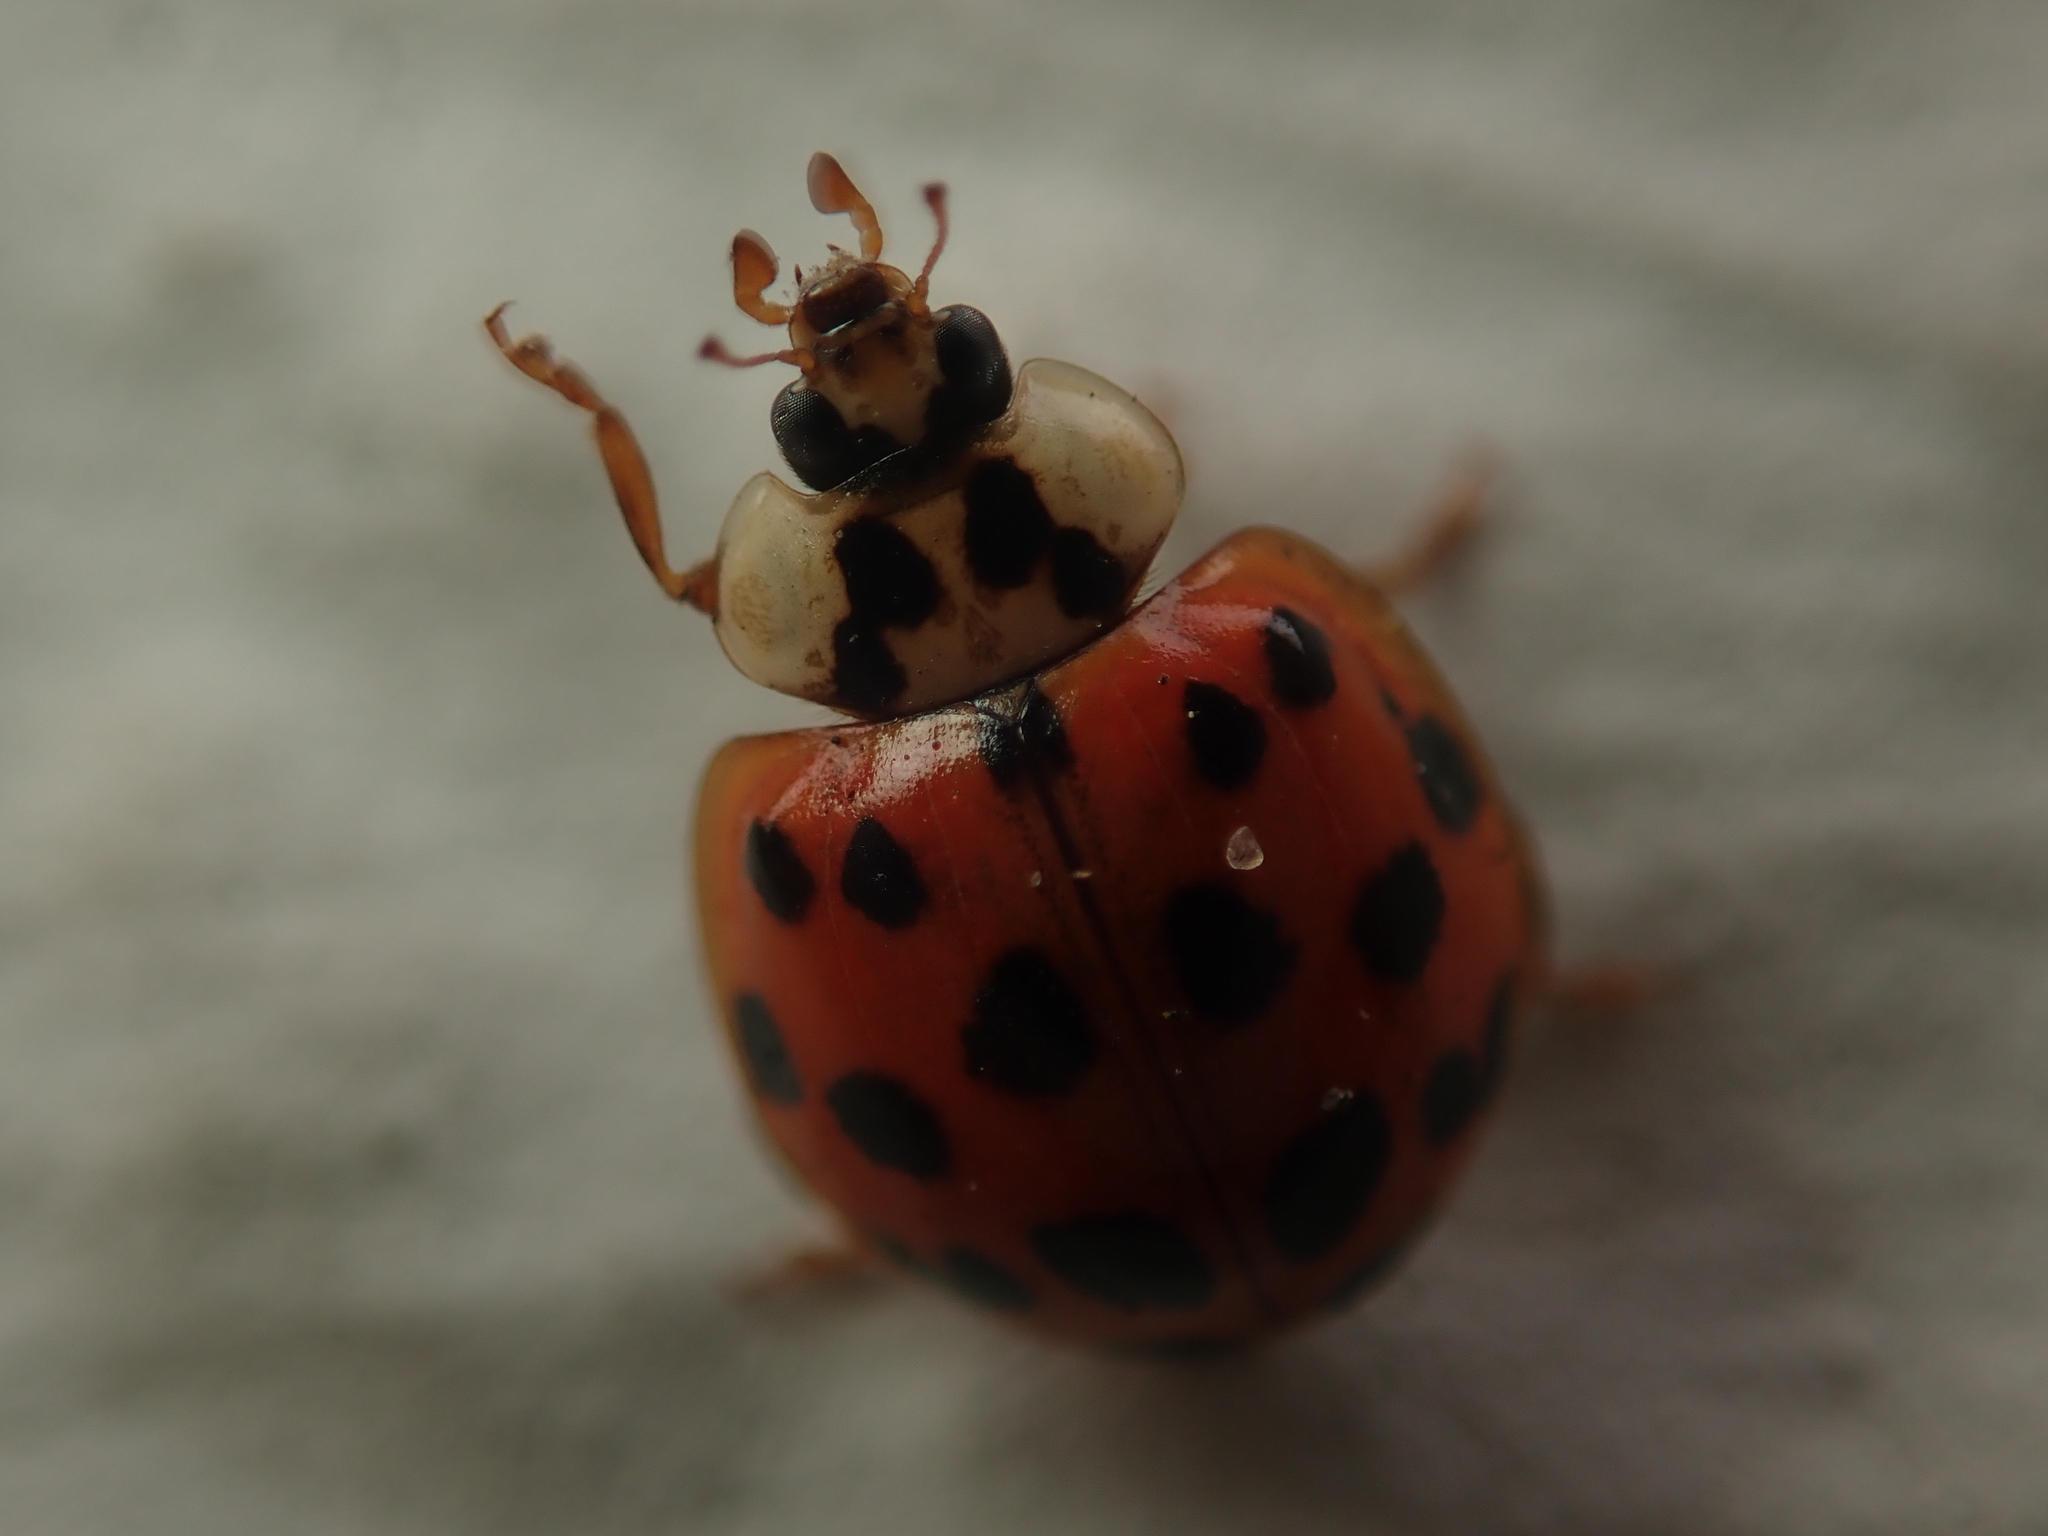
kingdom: Animalia
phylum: Arthropoda
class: Insecta
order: Coleoptera
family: Coccinellidae
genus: Harmonia
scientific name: Harmonia axyridis
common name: Harlequin ladybird
